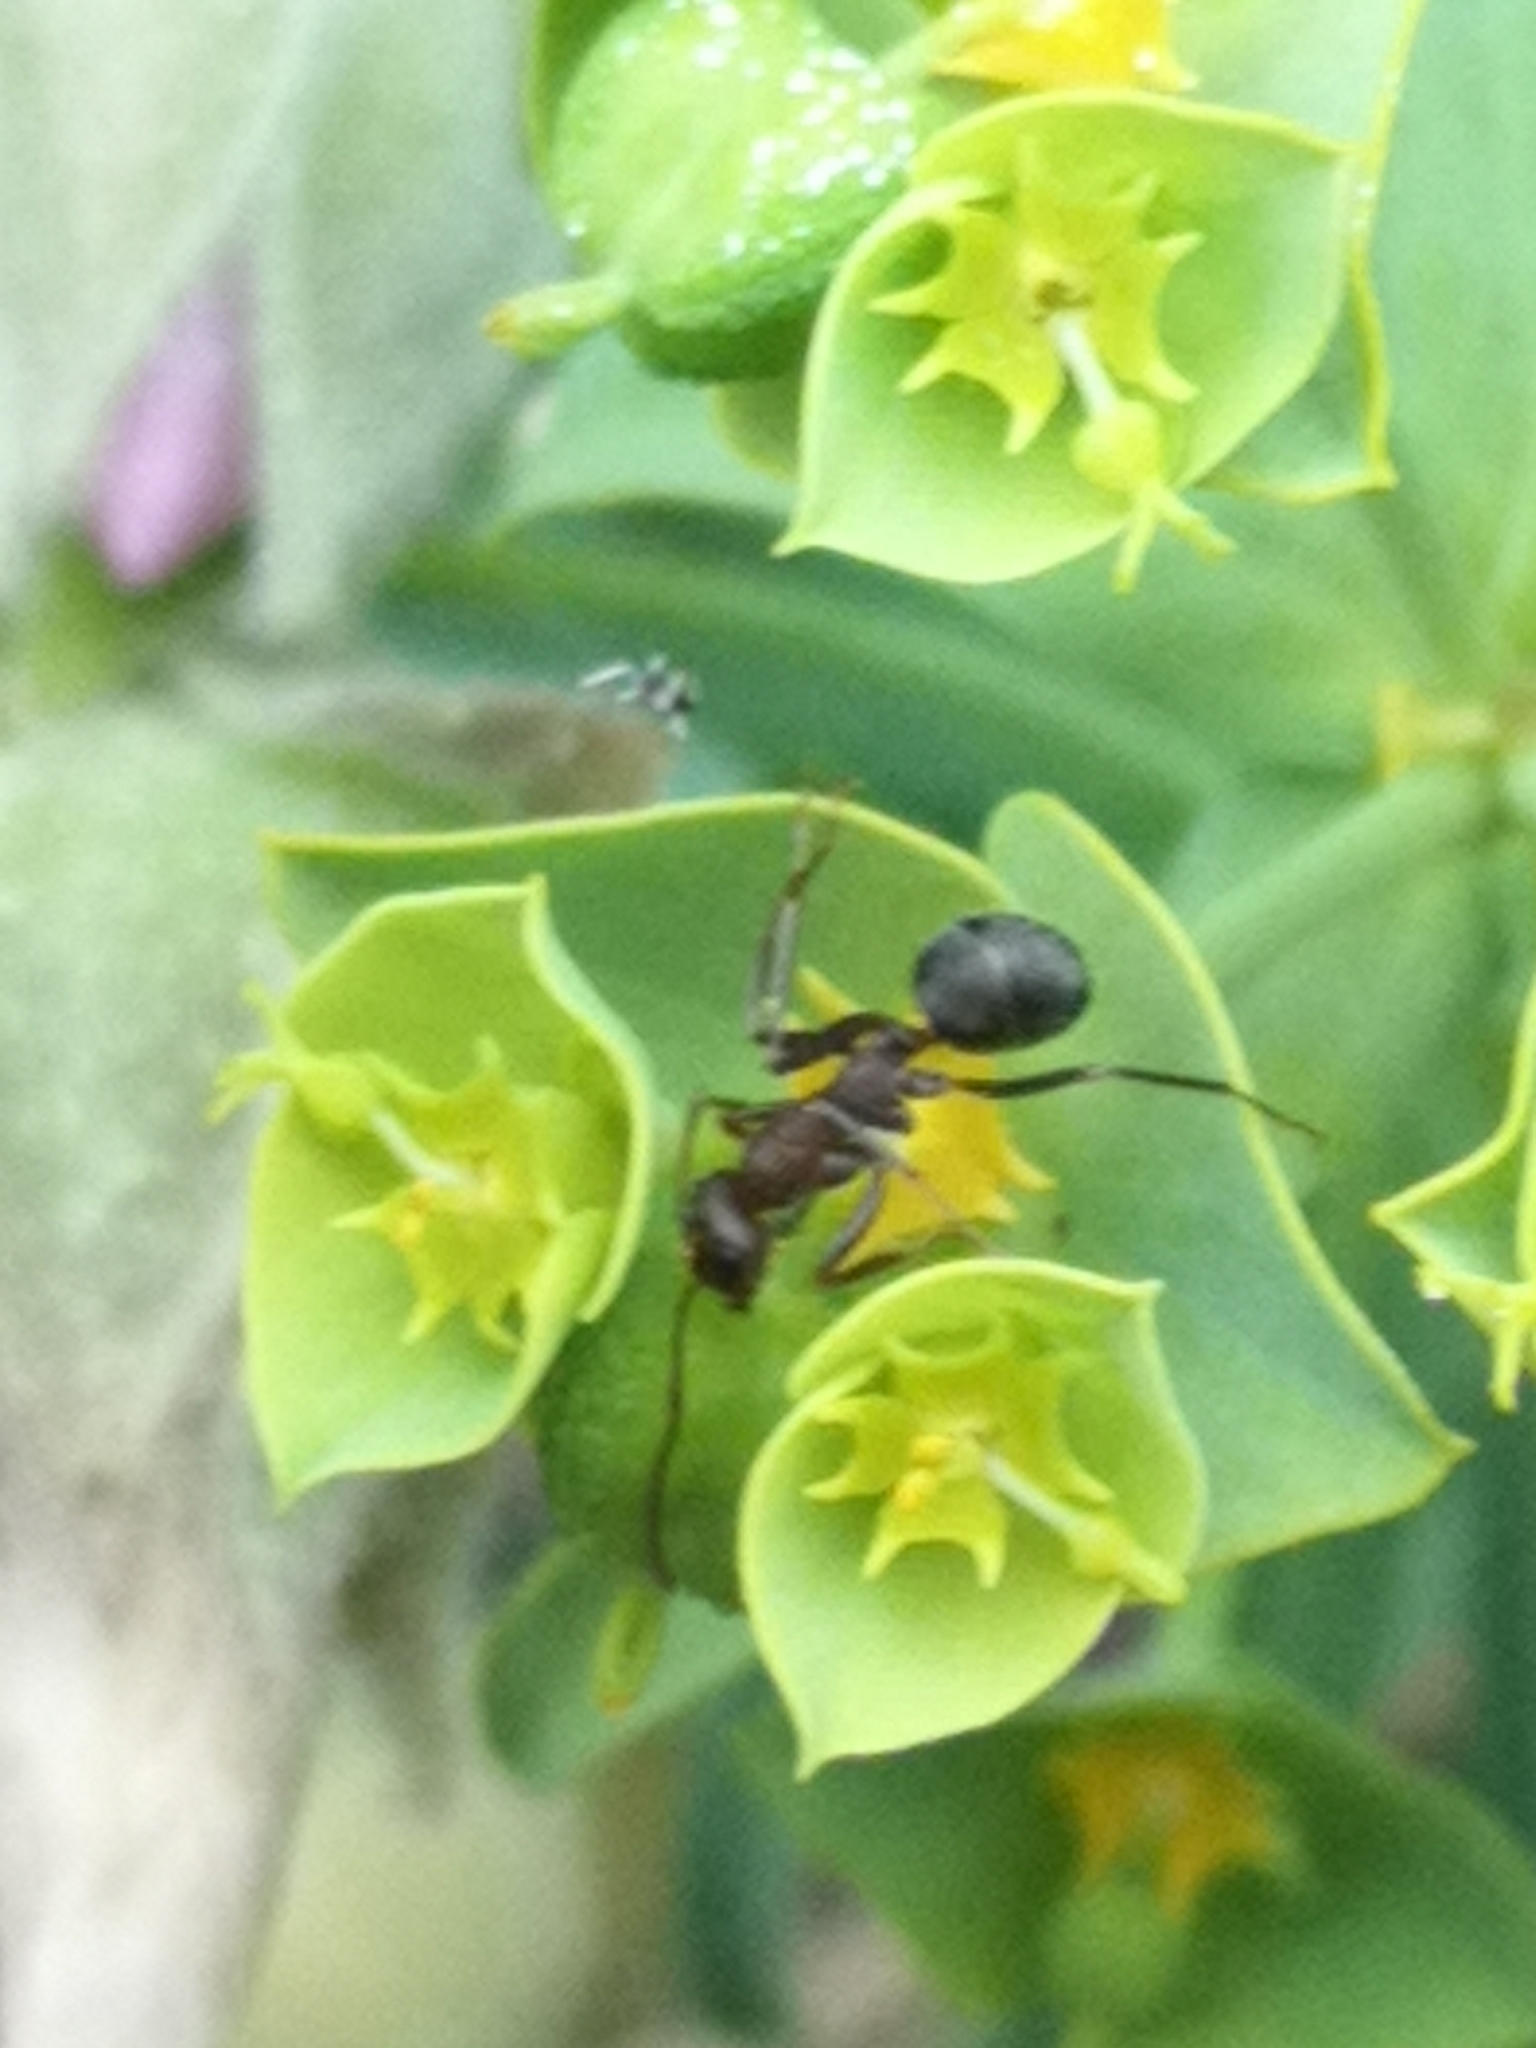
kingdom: Animalia
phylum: Arthropoda
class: Insecta
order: Hymenoptera
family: Formicidae
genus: Formica
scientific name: Formica subrufa
